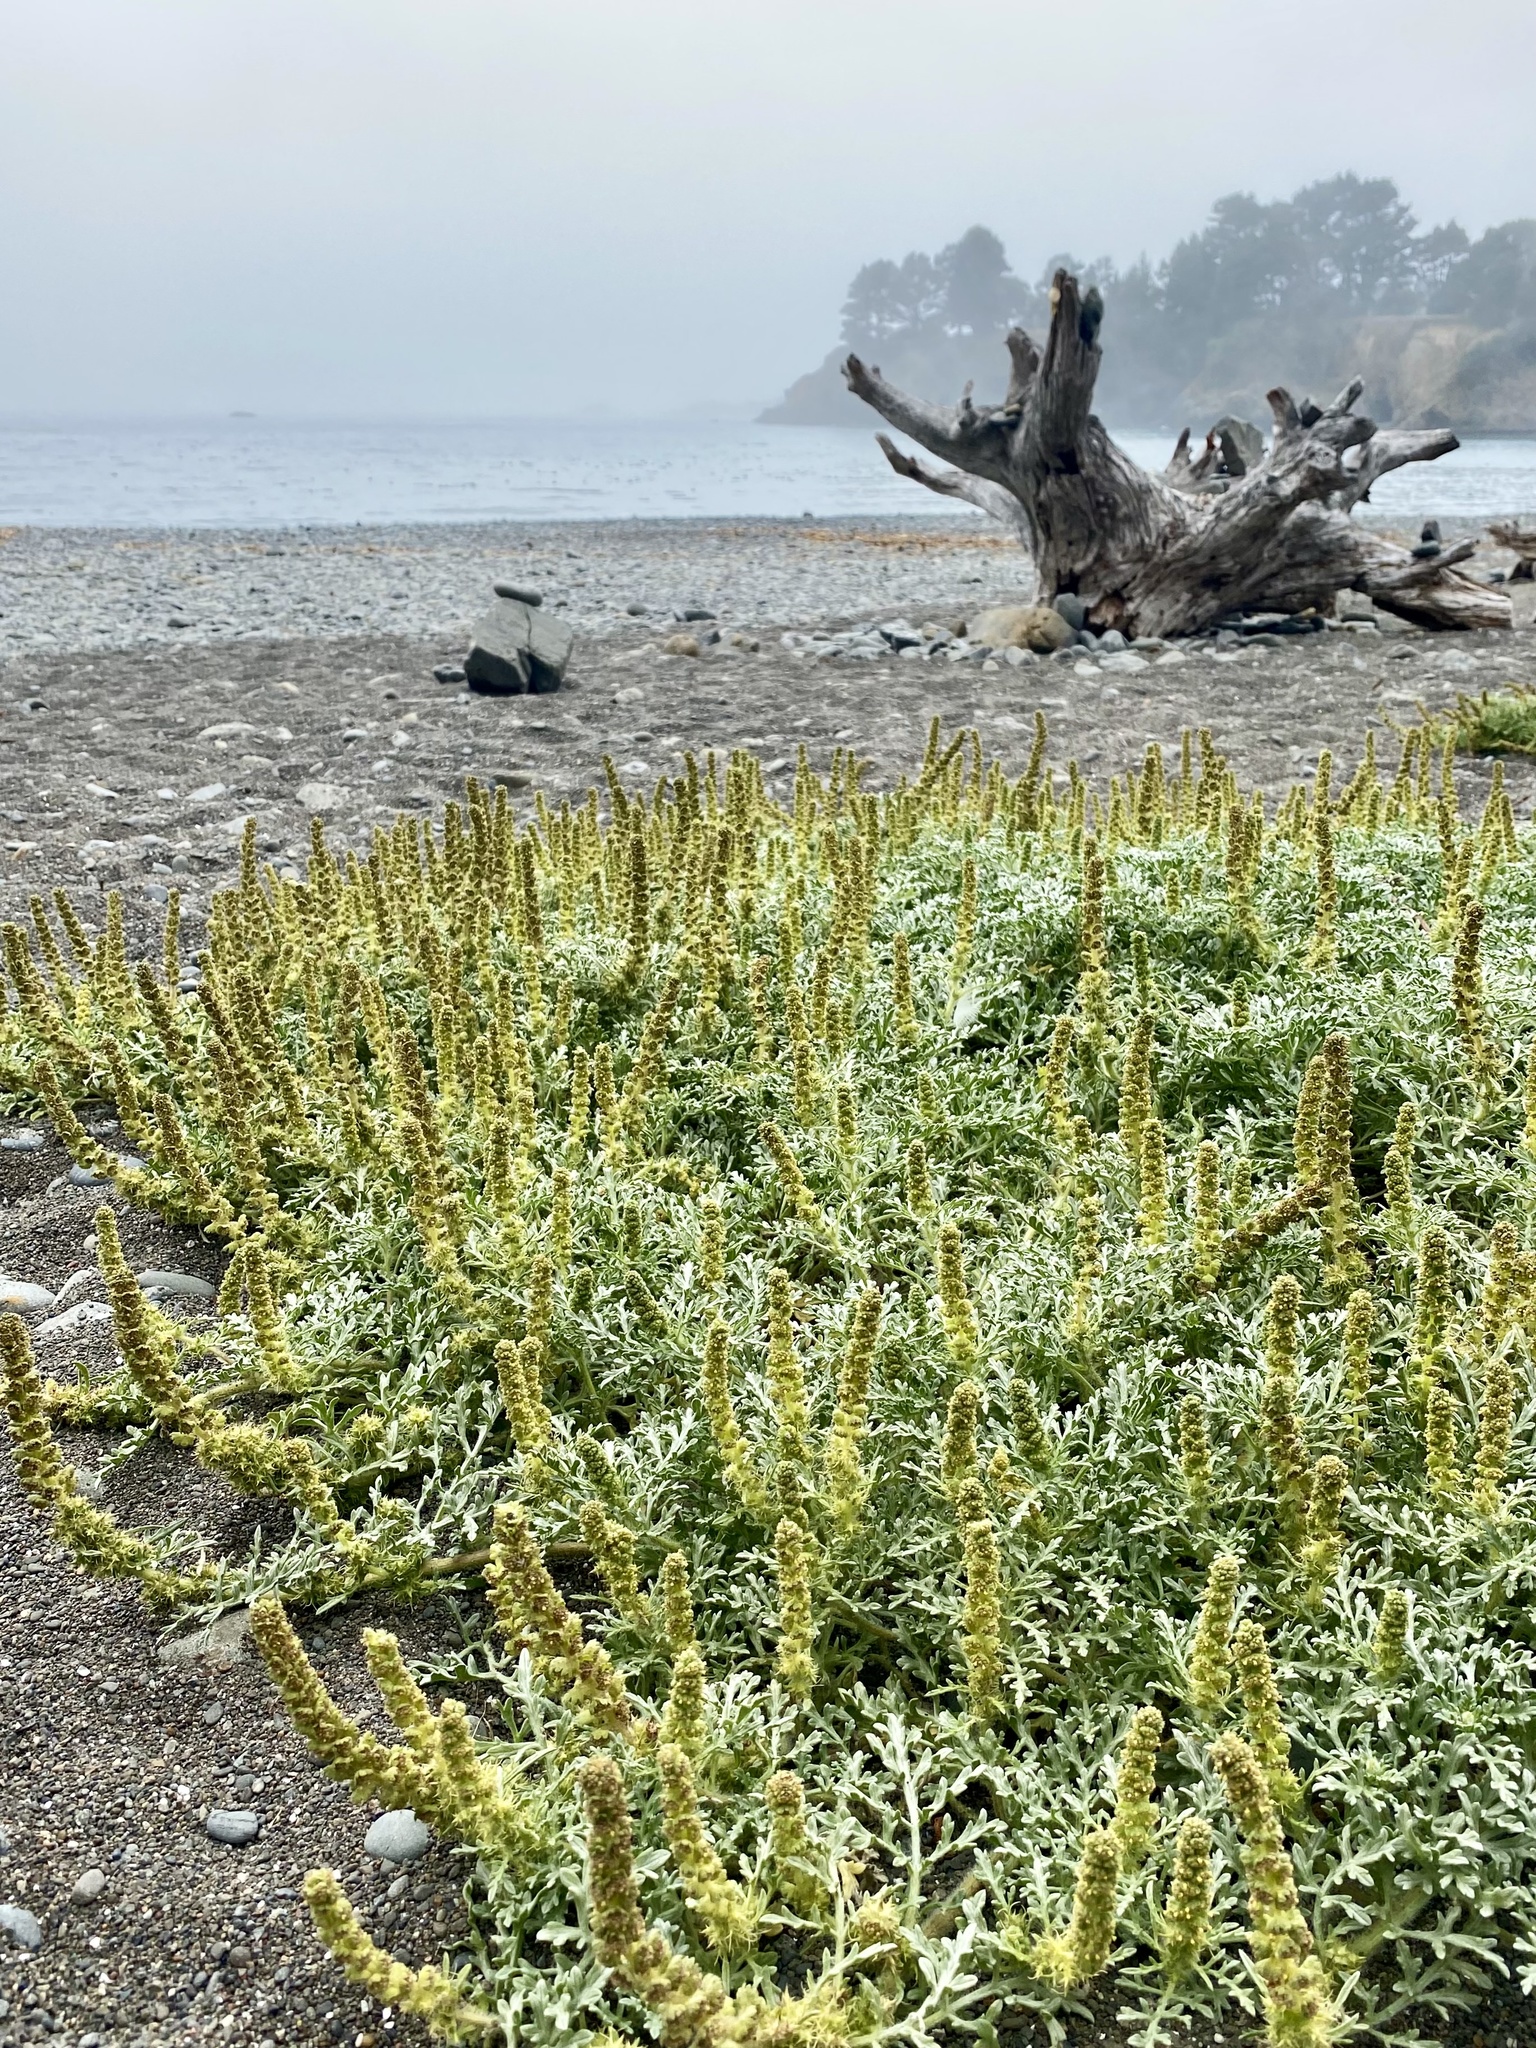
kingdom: Plantae
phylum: Tracheophyta
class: Magnoliopsida
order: Asterales
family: Asteraceae
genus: Ambrosia
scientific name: Ambrosia chamissonis
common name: Beachbur
